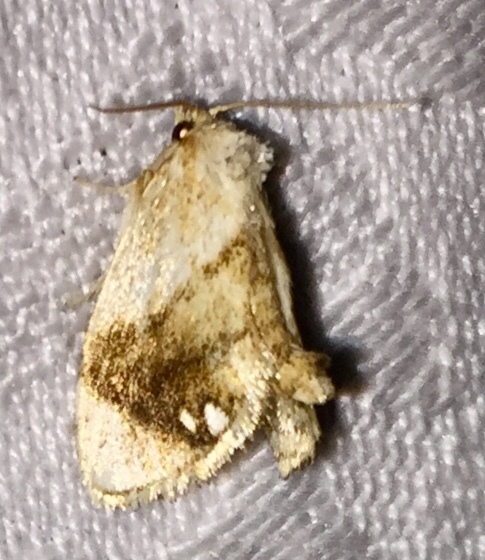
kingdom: Animalia
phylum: Arthropoda
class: Insecta
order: Lepidoptera
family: Limacodidae
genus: Packardia
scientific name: Packardia geminata
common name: Jeweled tailed slug moth
